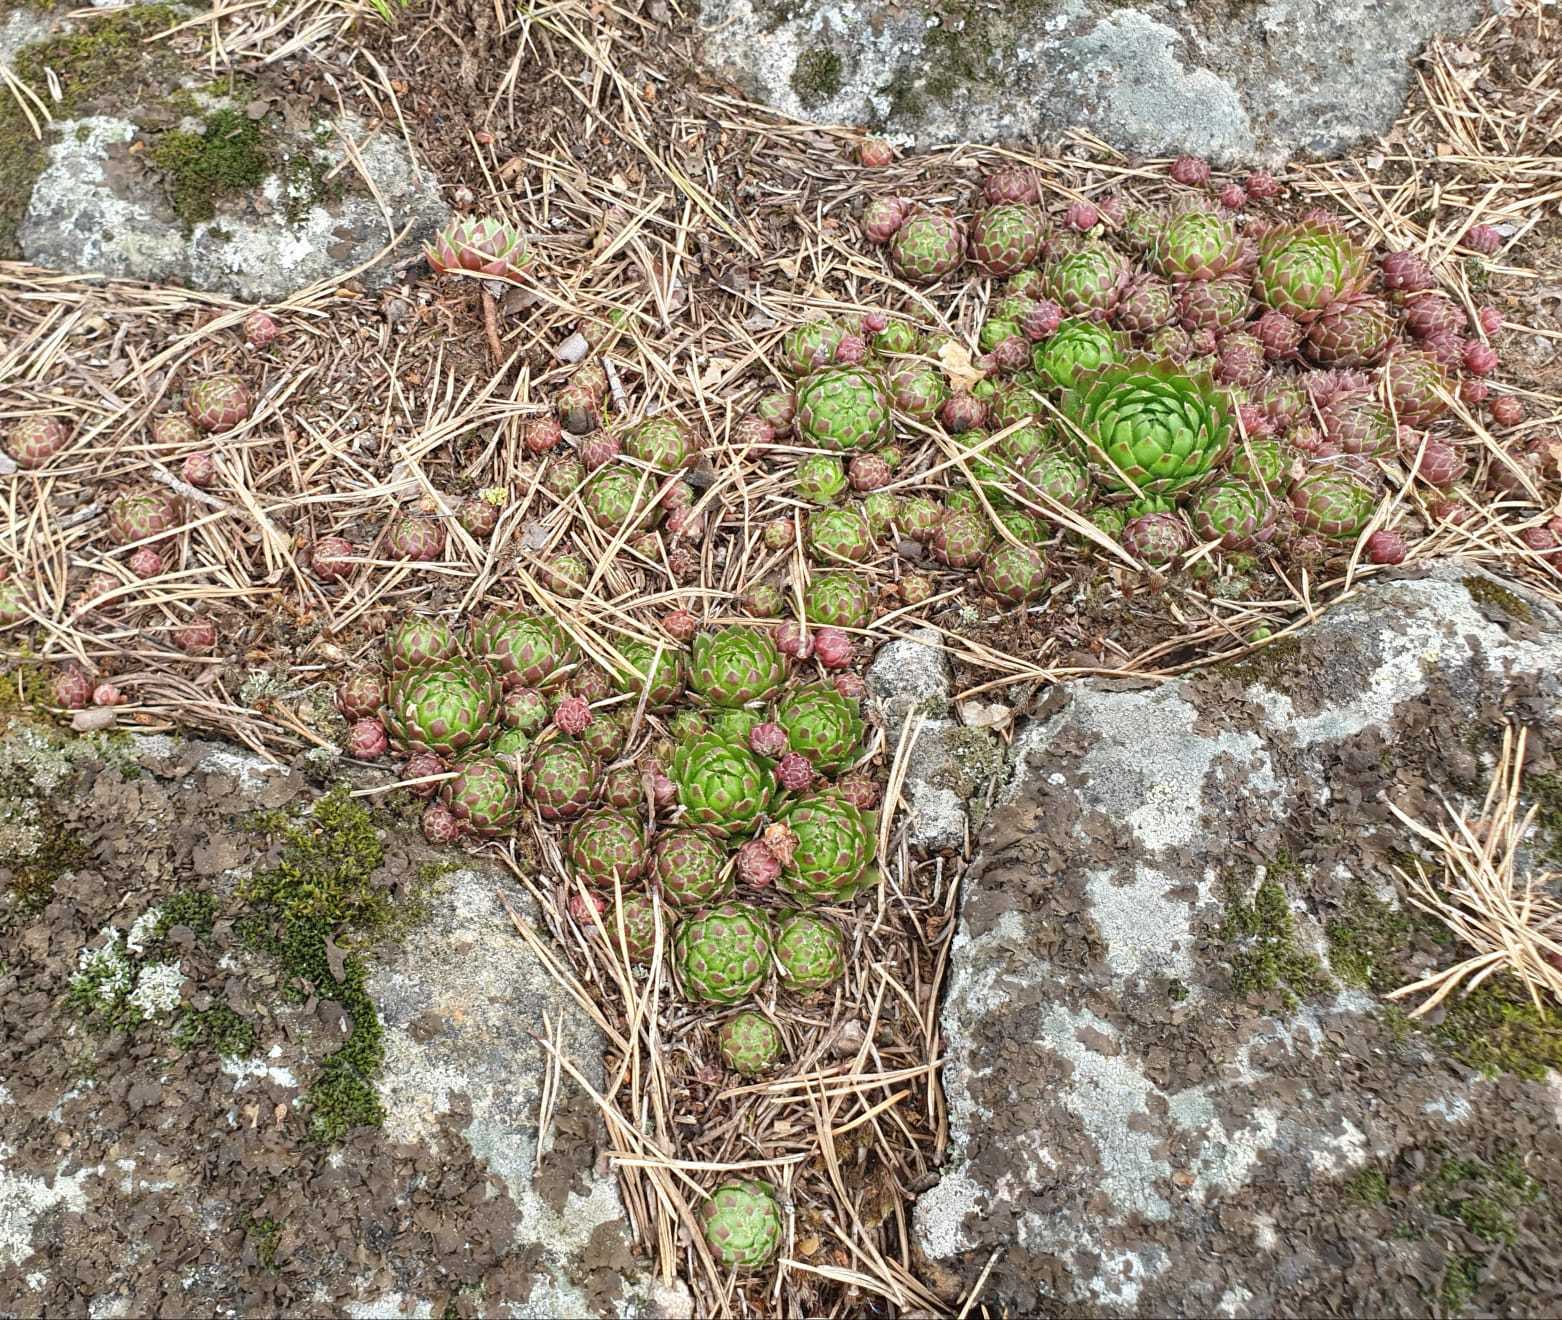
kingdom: Plantae
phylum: Tracheophyta
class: Magnoliopsida
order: Saxifragales
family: Crassulaceae
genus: Sempervivum
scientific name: Sempervivum globiferum
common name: Rolling hen-and-chicks
